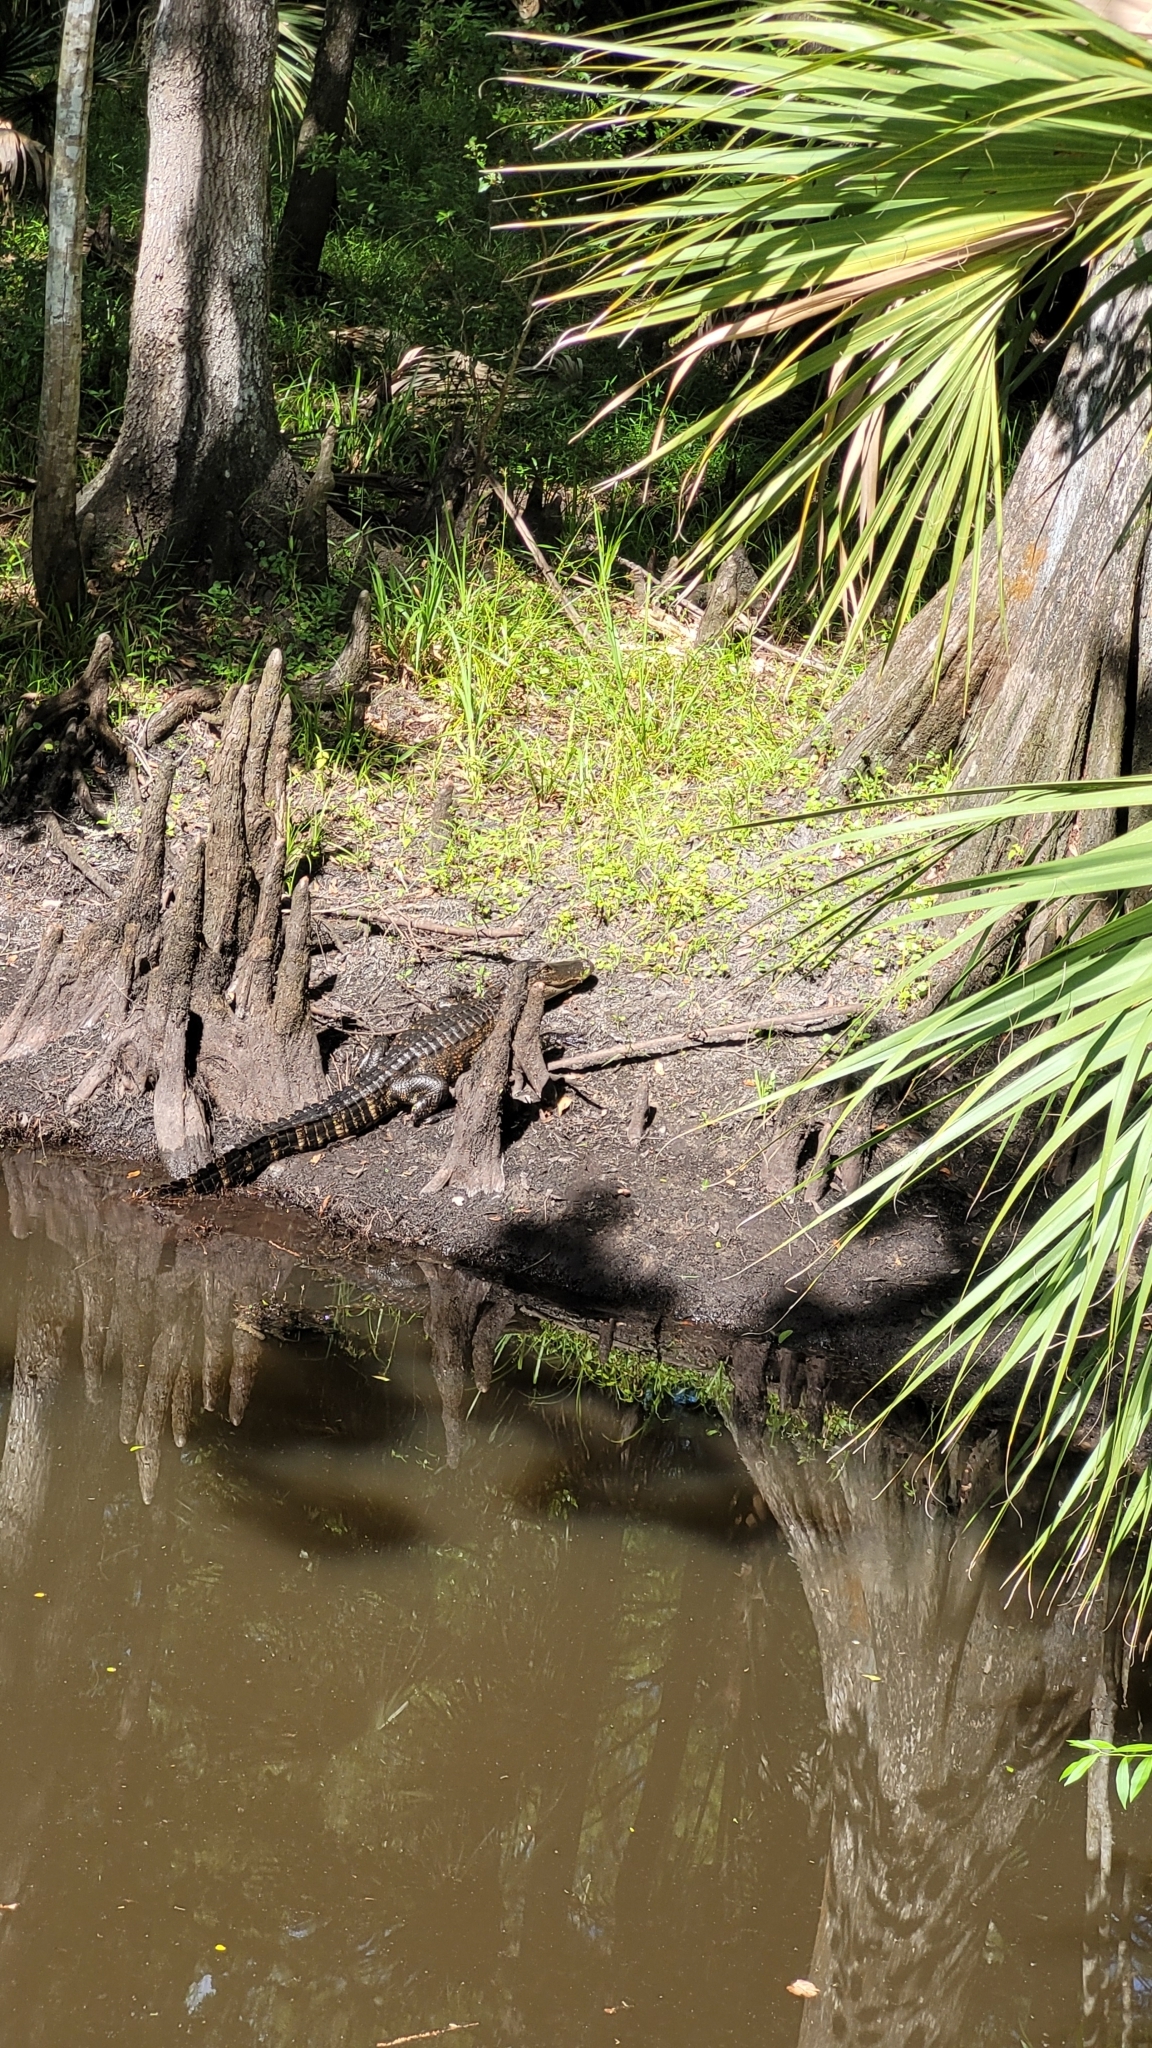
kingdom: Animalia
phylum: Chordata
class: Crocodylia
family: Alligatoridae
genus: Alligator
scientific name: Alligator mississippiensis
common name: American alligator
